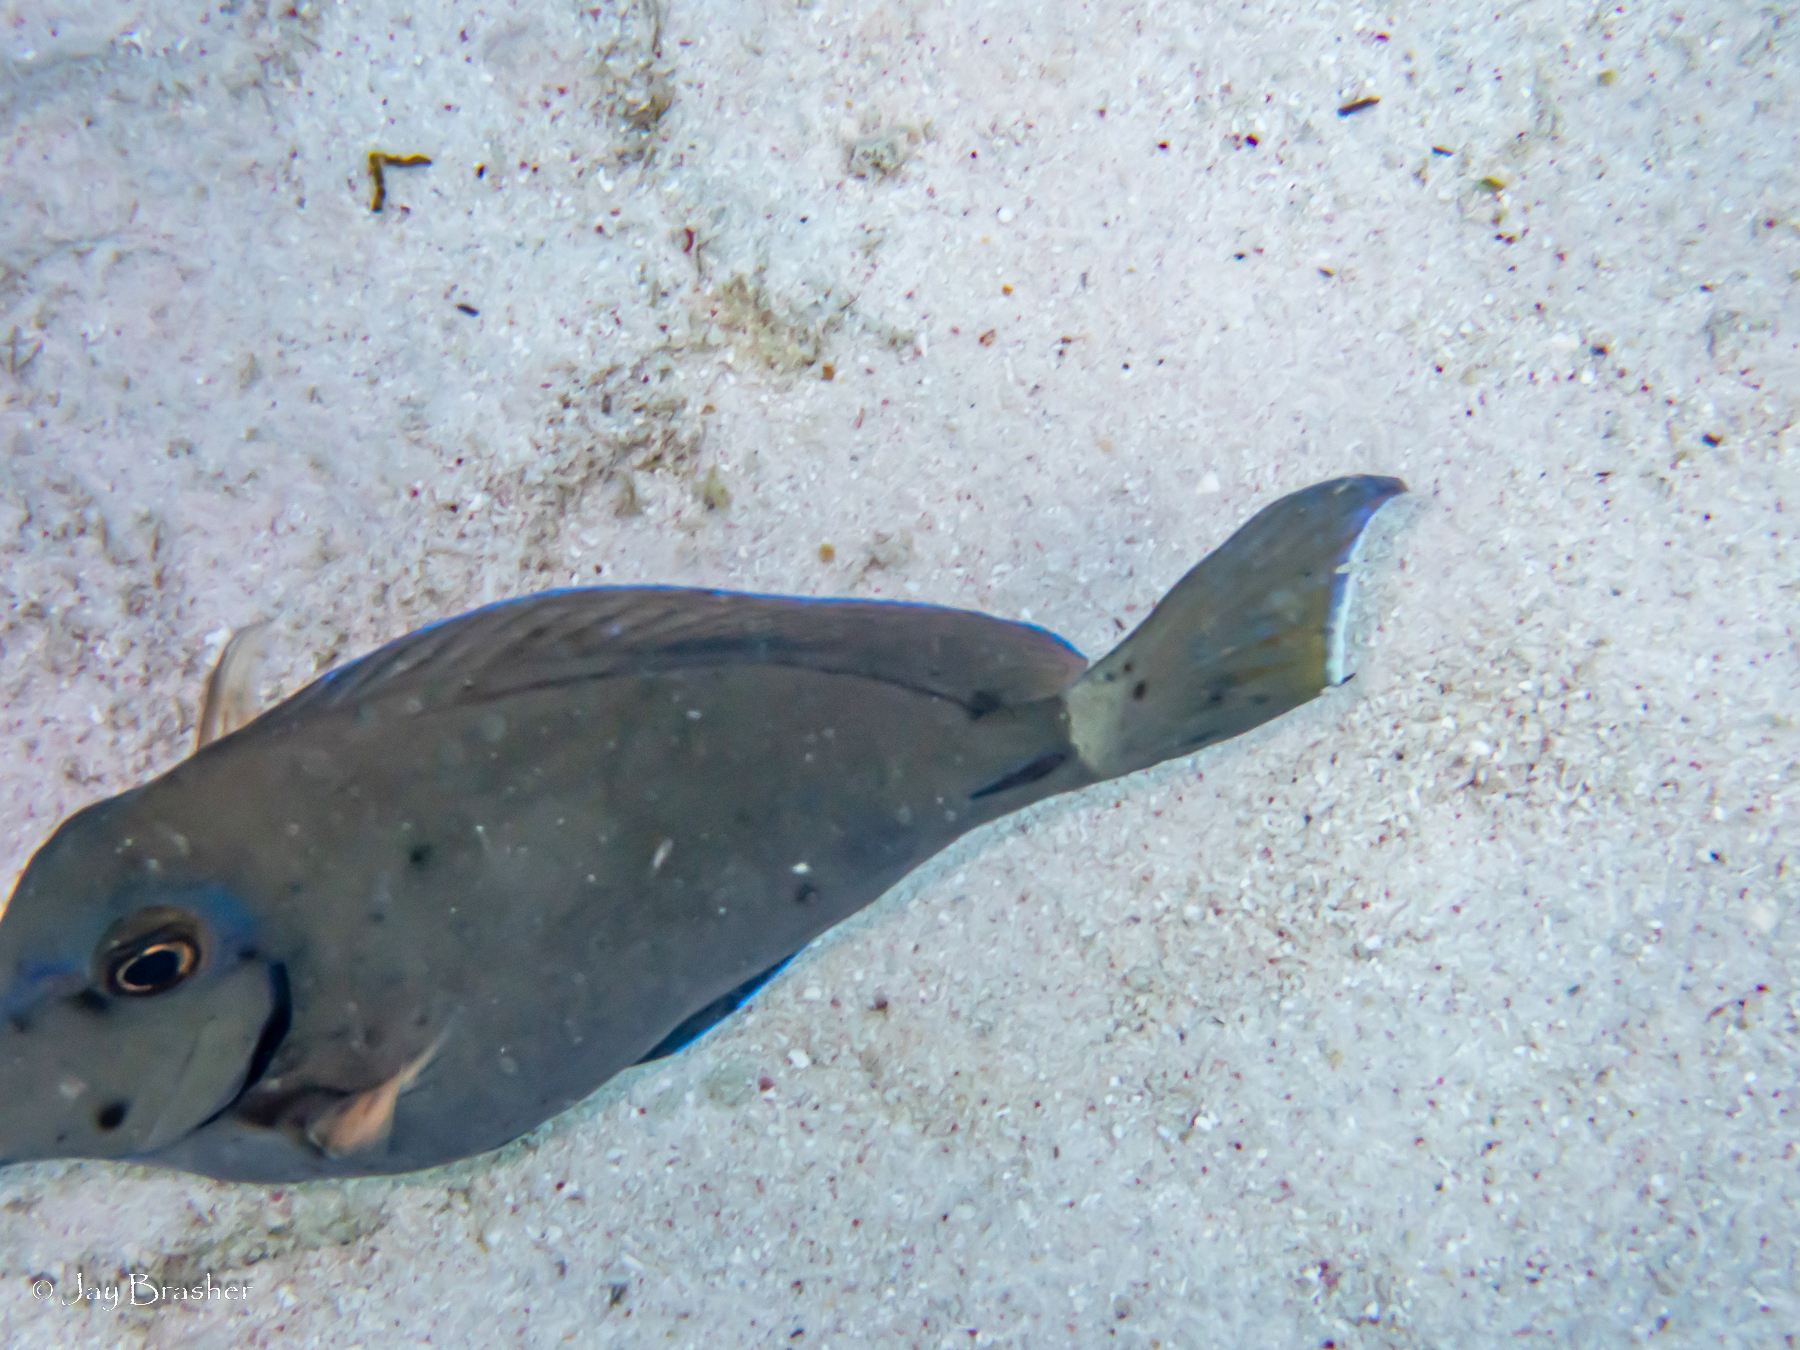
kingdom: Animalia
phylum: Chordata
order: Perciformes
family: Acanthuridae
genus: Acanthurus
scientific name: Acanthurus bahianus
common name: Ocean surgeon
